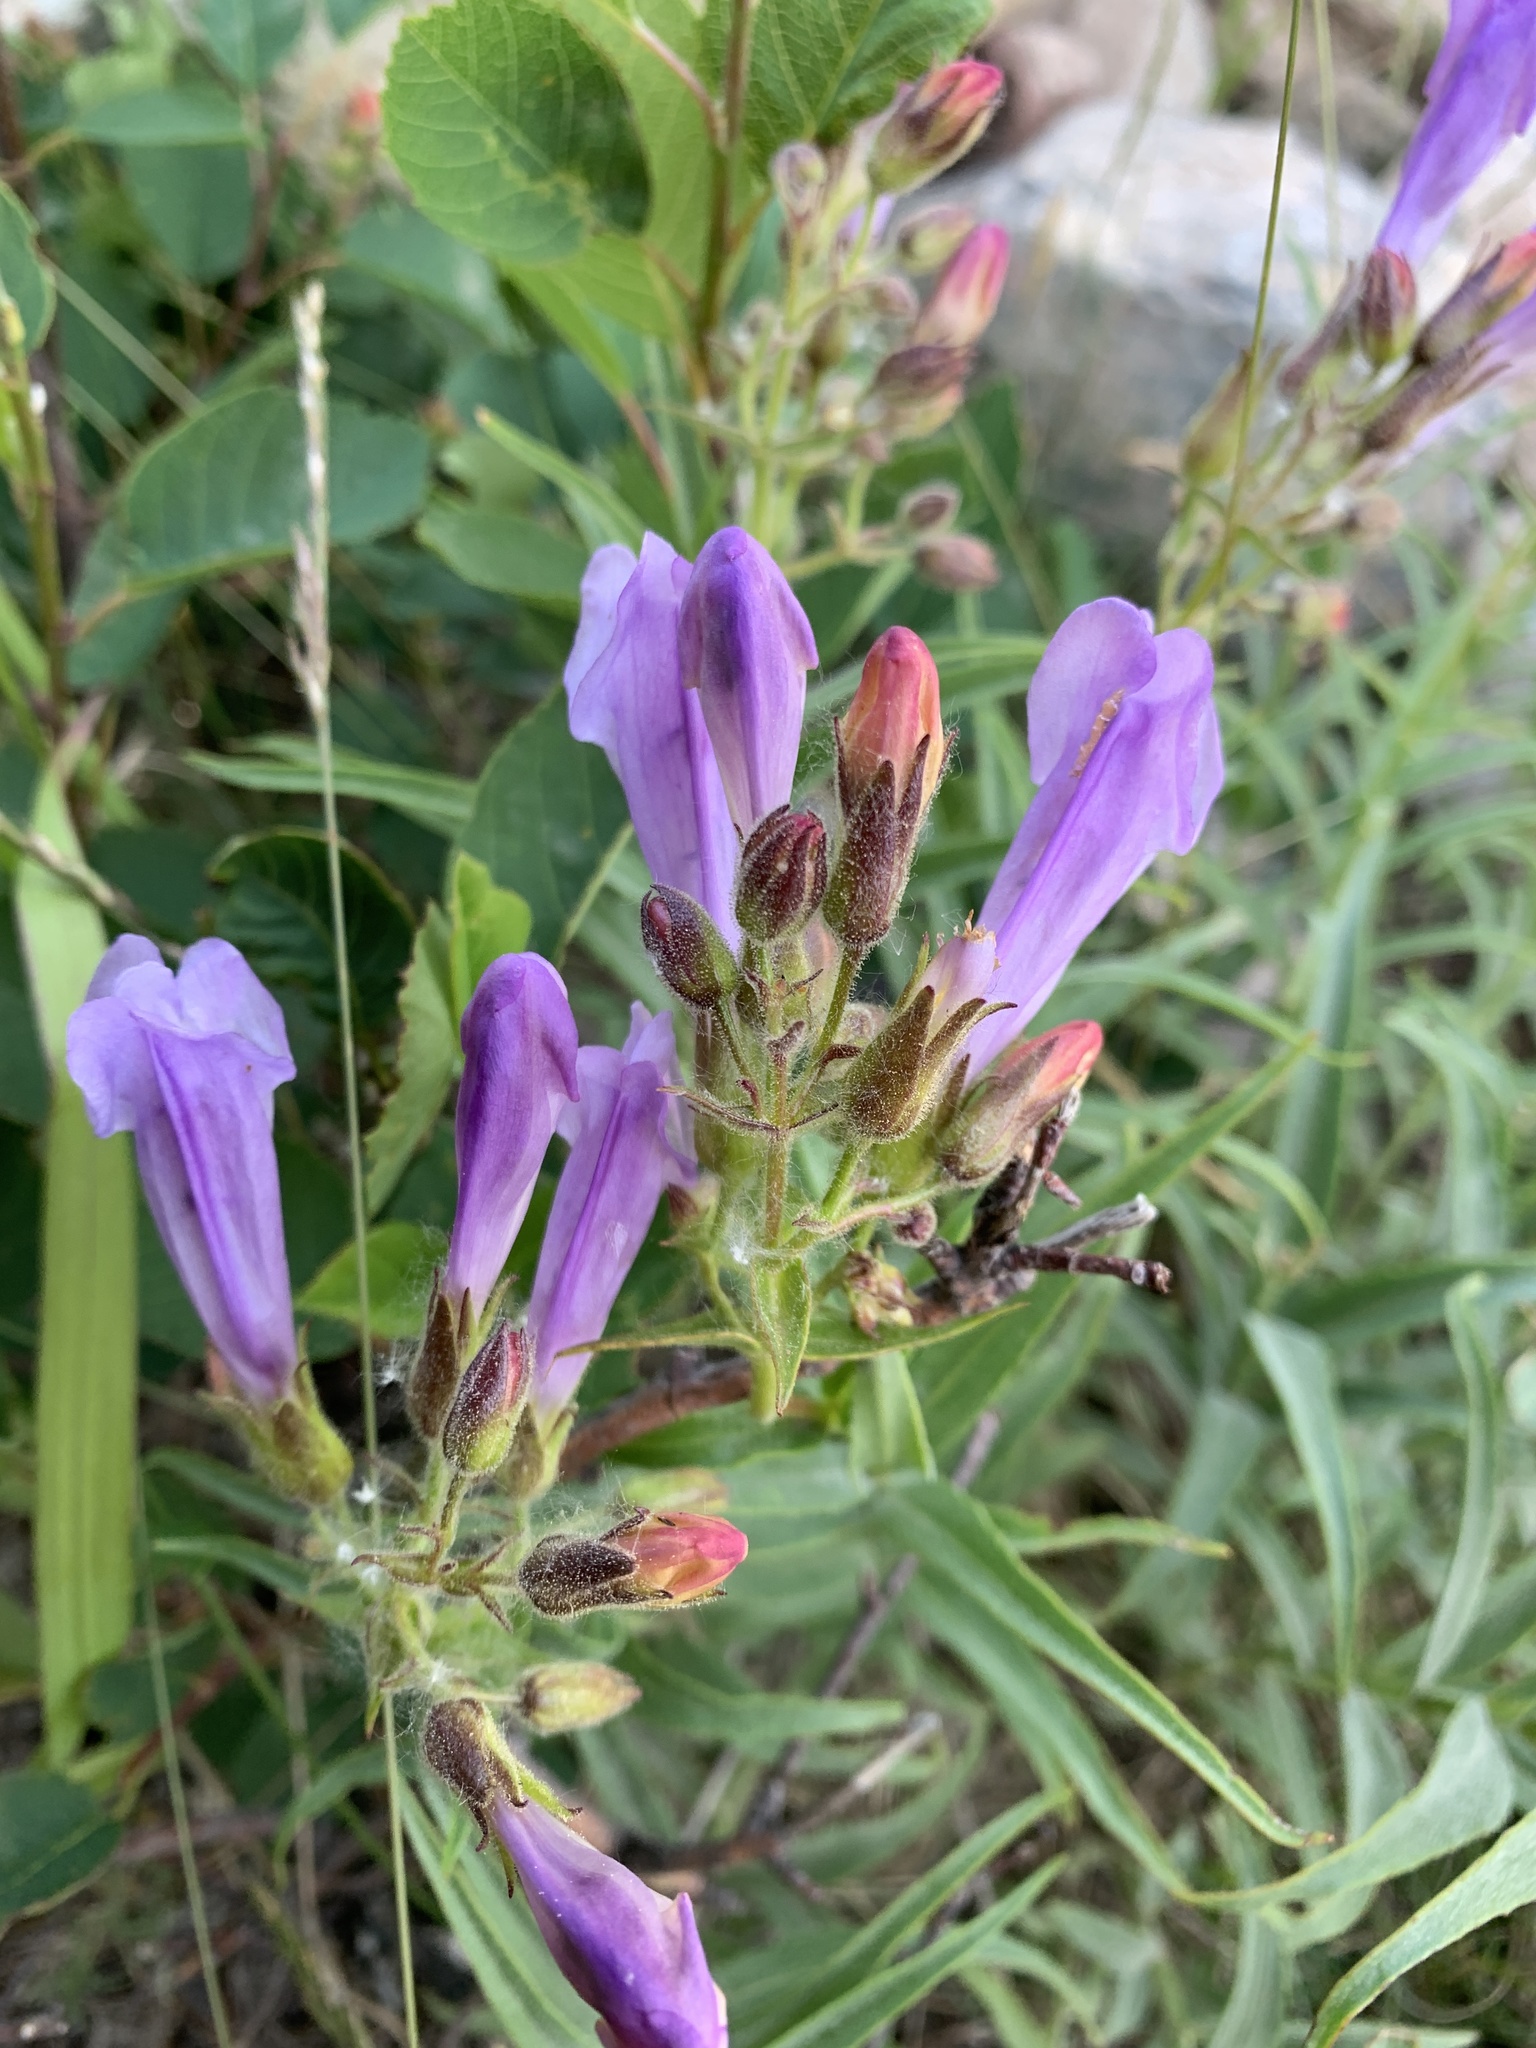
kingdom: Plantae
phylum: Tracheophyta
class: Magnoliopsida
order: Lamiales
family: Plantaginaceae
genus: Penstemon
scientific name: Penstemon lyalli
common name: Lyall's beardtongue
